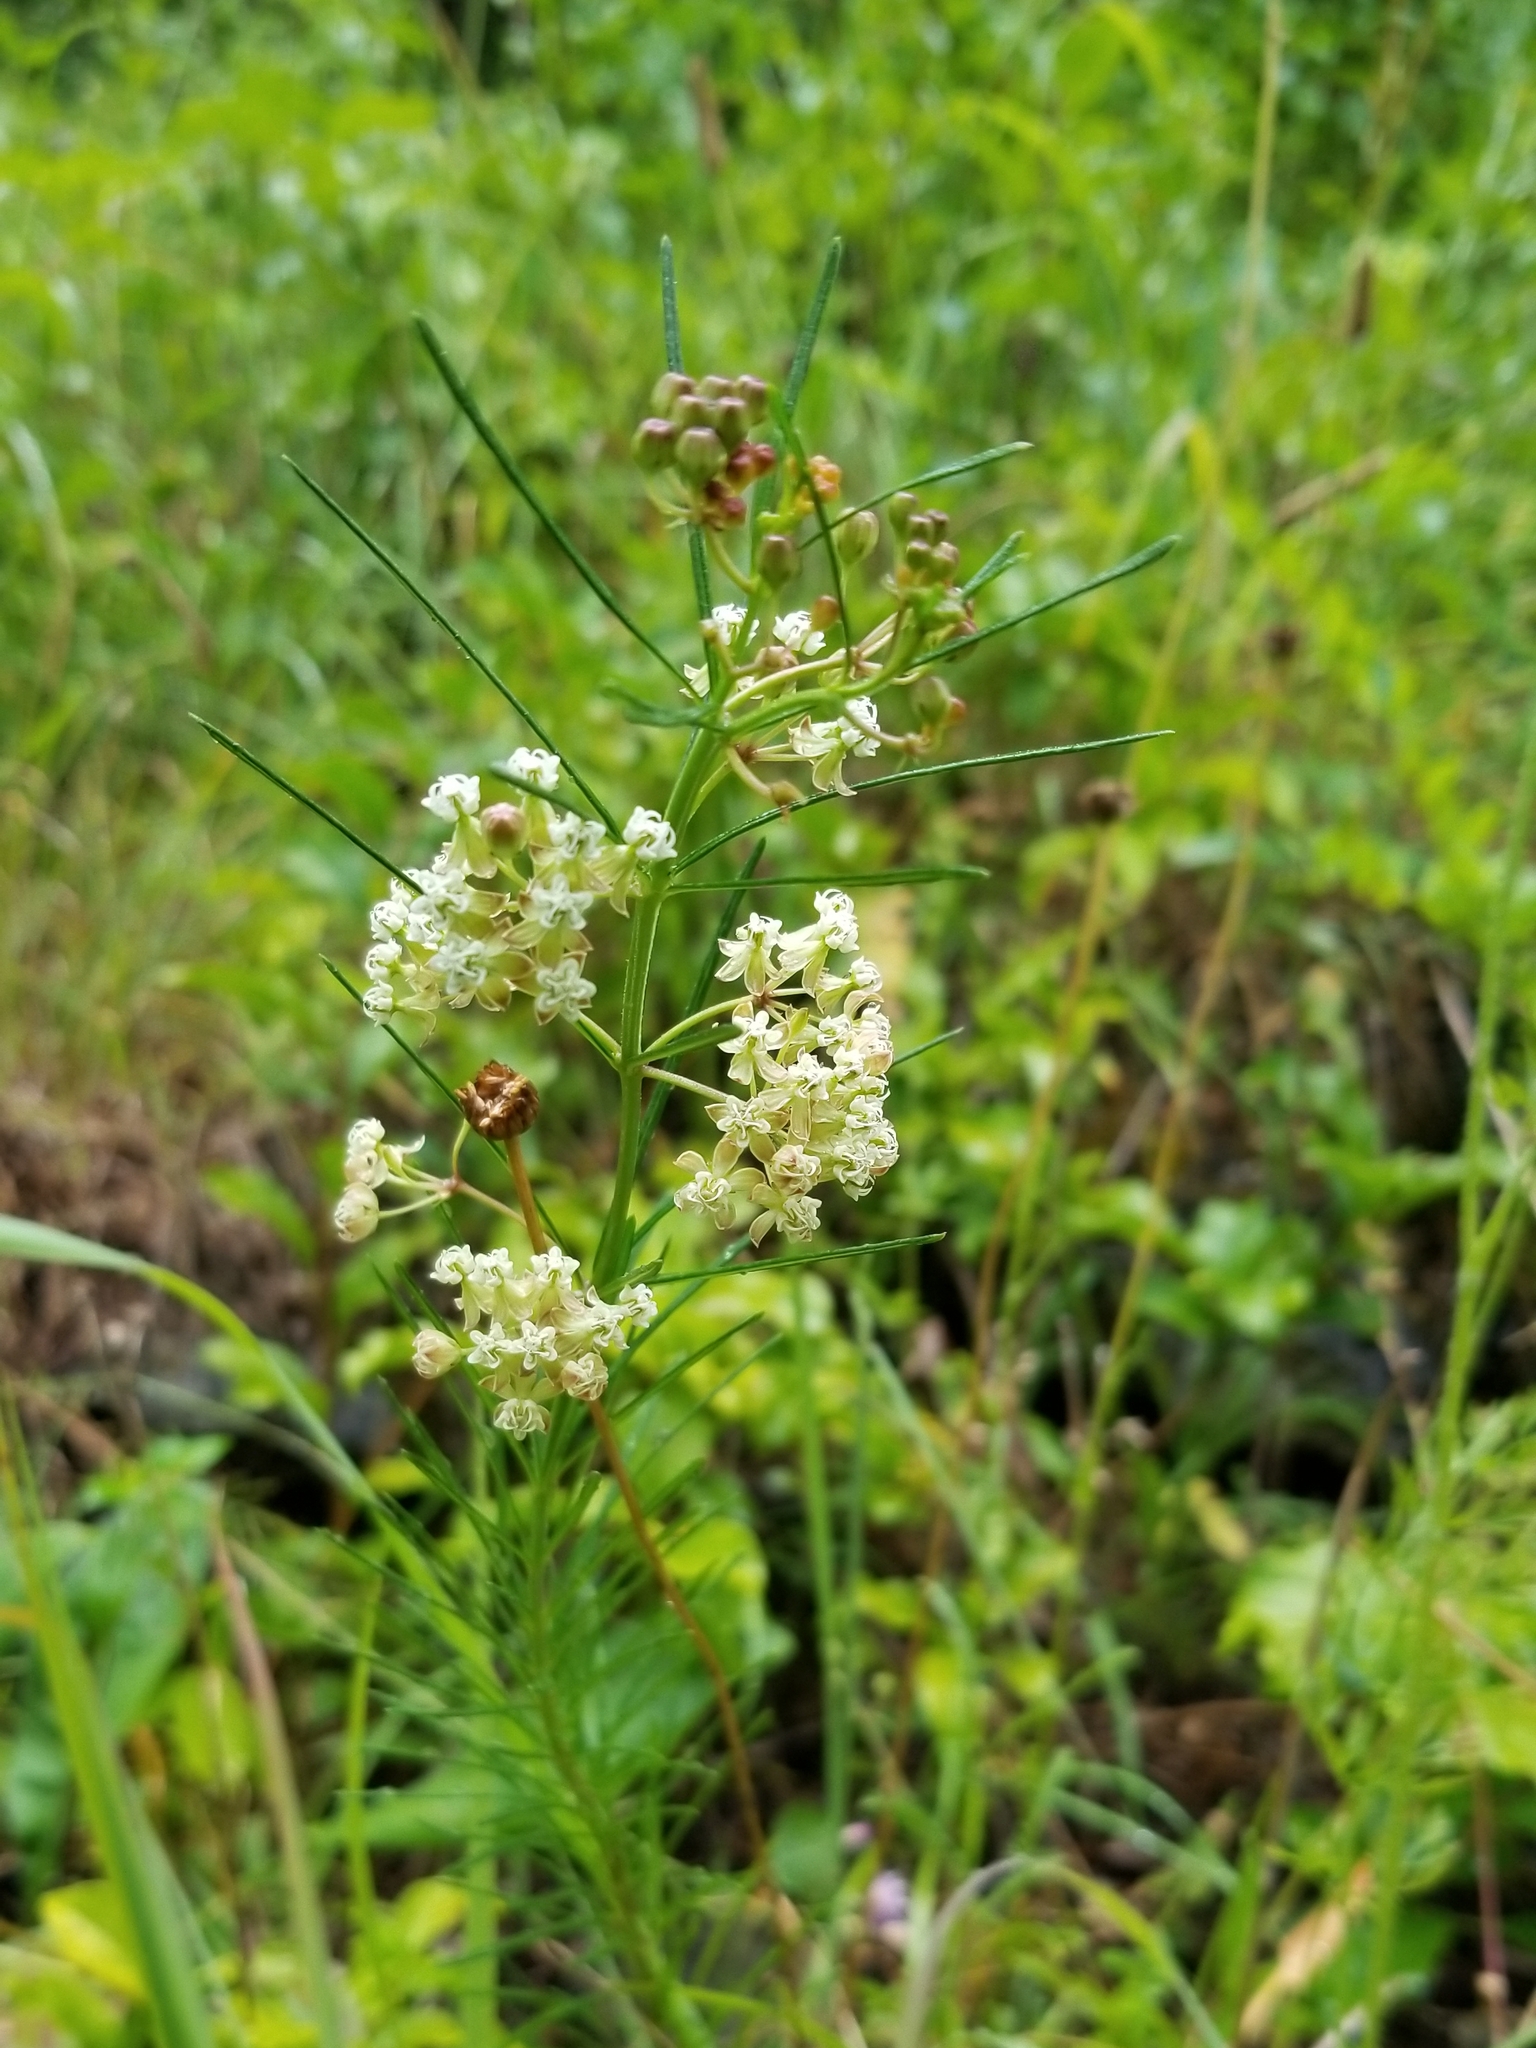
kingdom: Plantae
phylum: Tracheophyta
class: Magnoliopsida
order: Gentianales
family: Apocynaceae
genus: Asclepias
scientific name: Asclepias verticillata
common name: Eastern whorled milkweed
